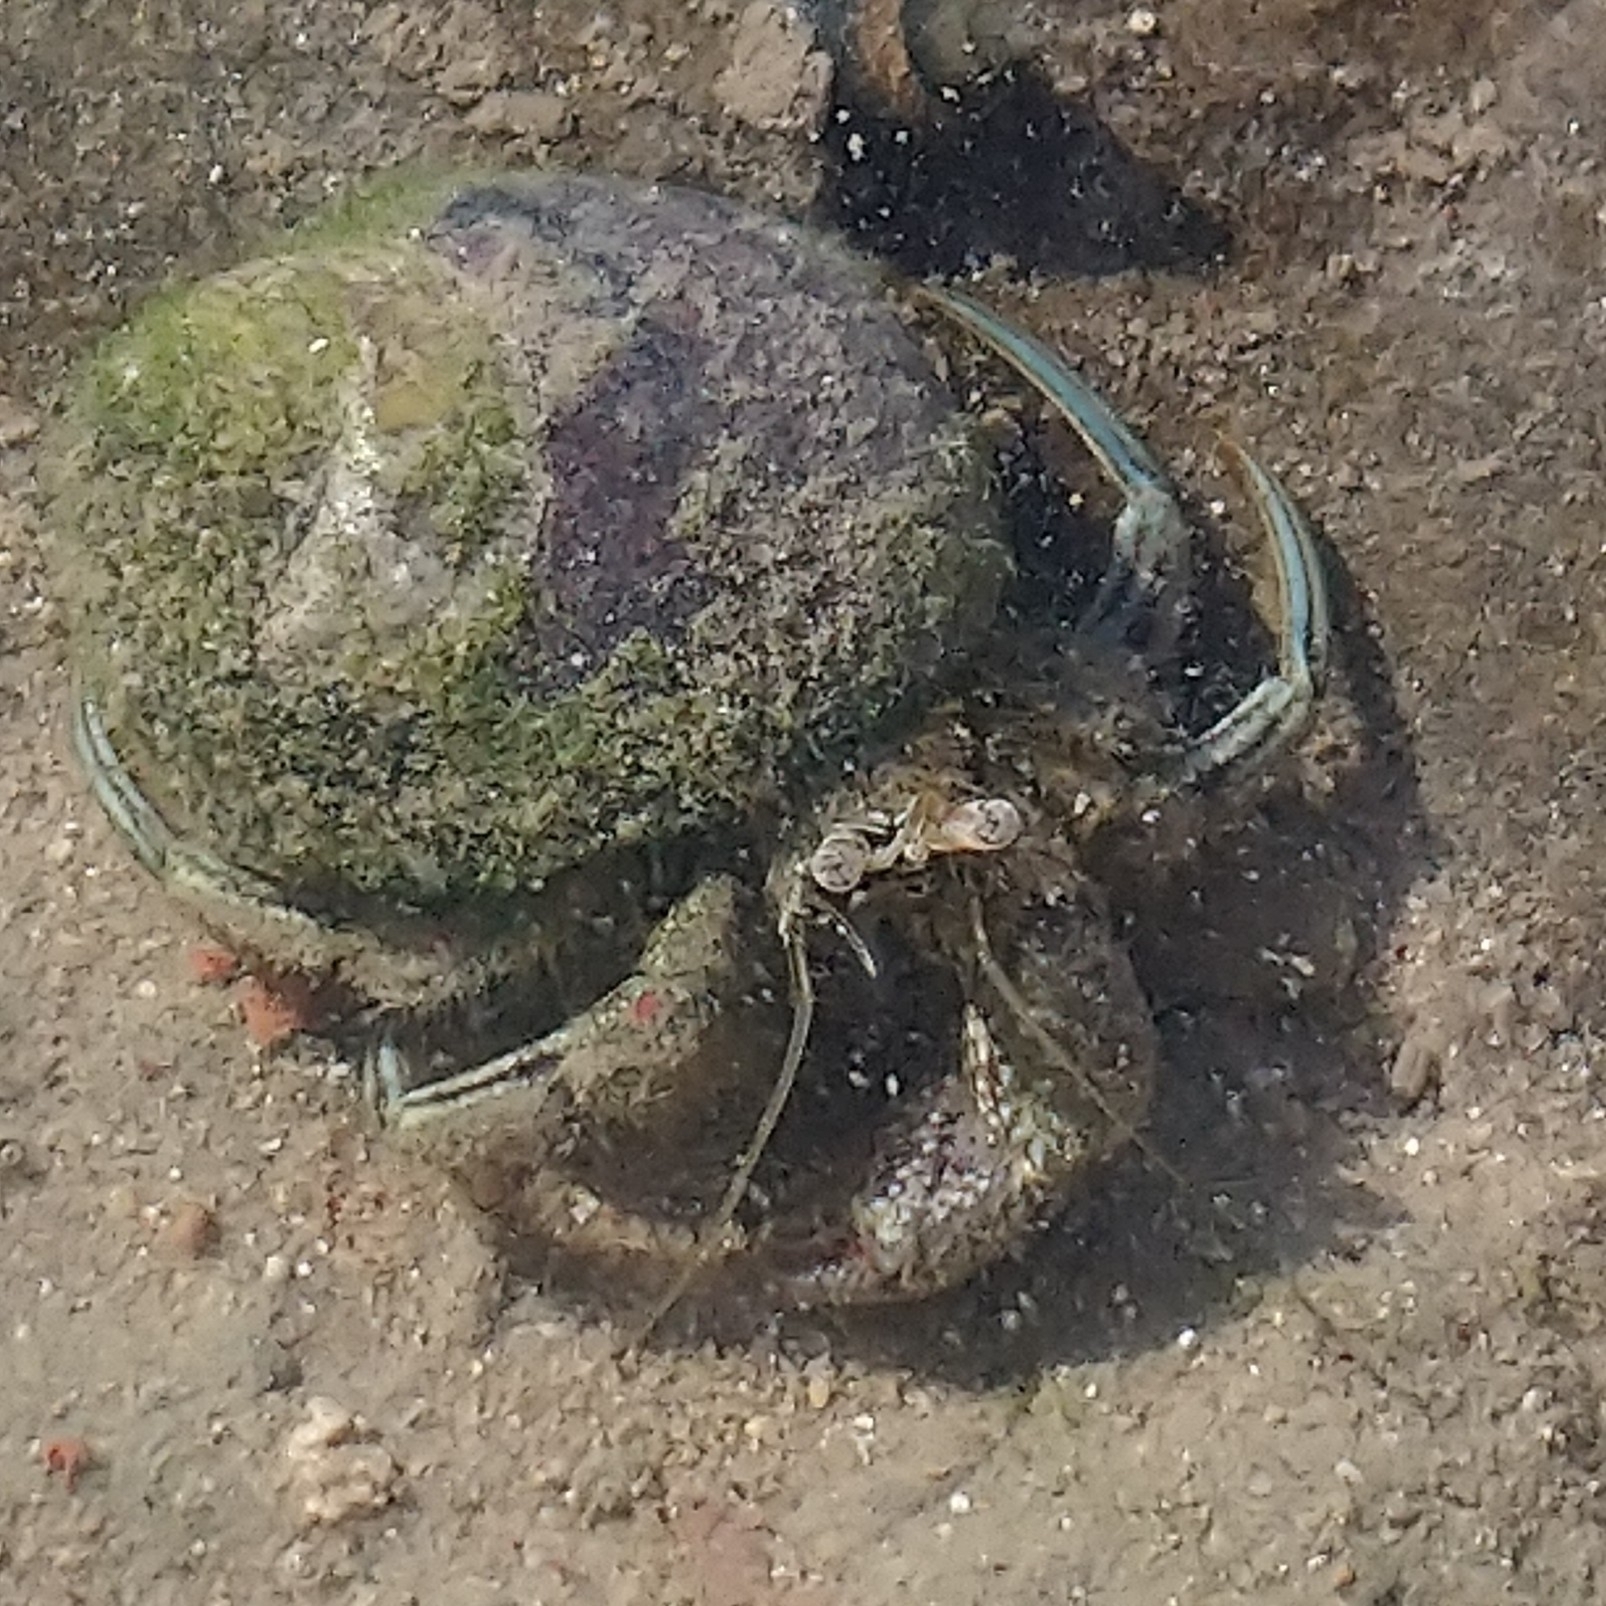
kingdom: Animalia
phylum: Arthropoda
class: Malacostraca
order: Decapoda
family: Diogenidae
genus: Diogenes
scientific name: Diogenes brevirostris
